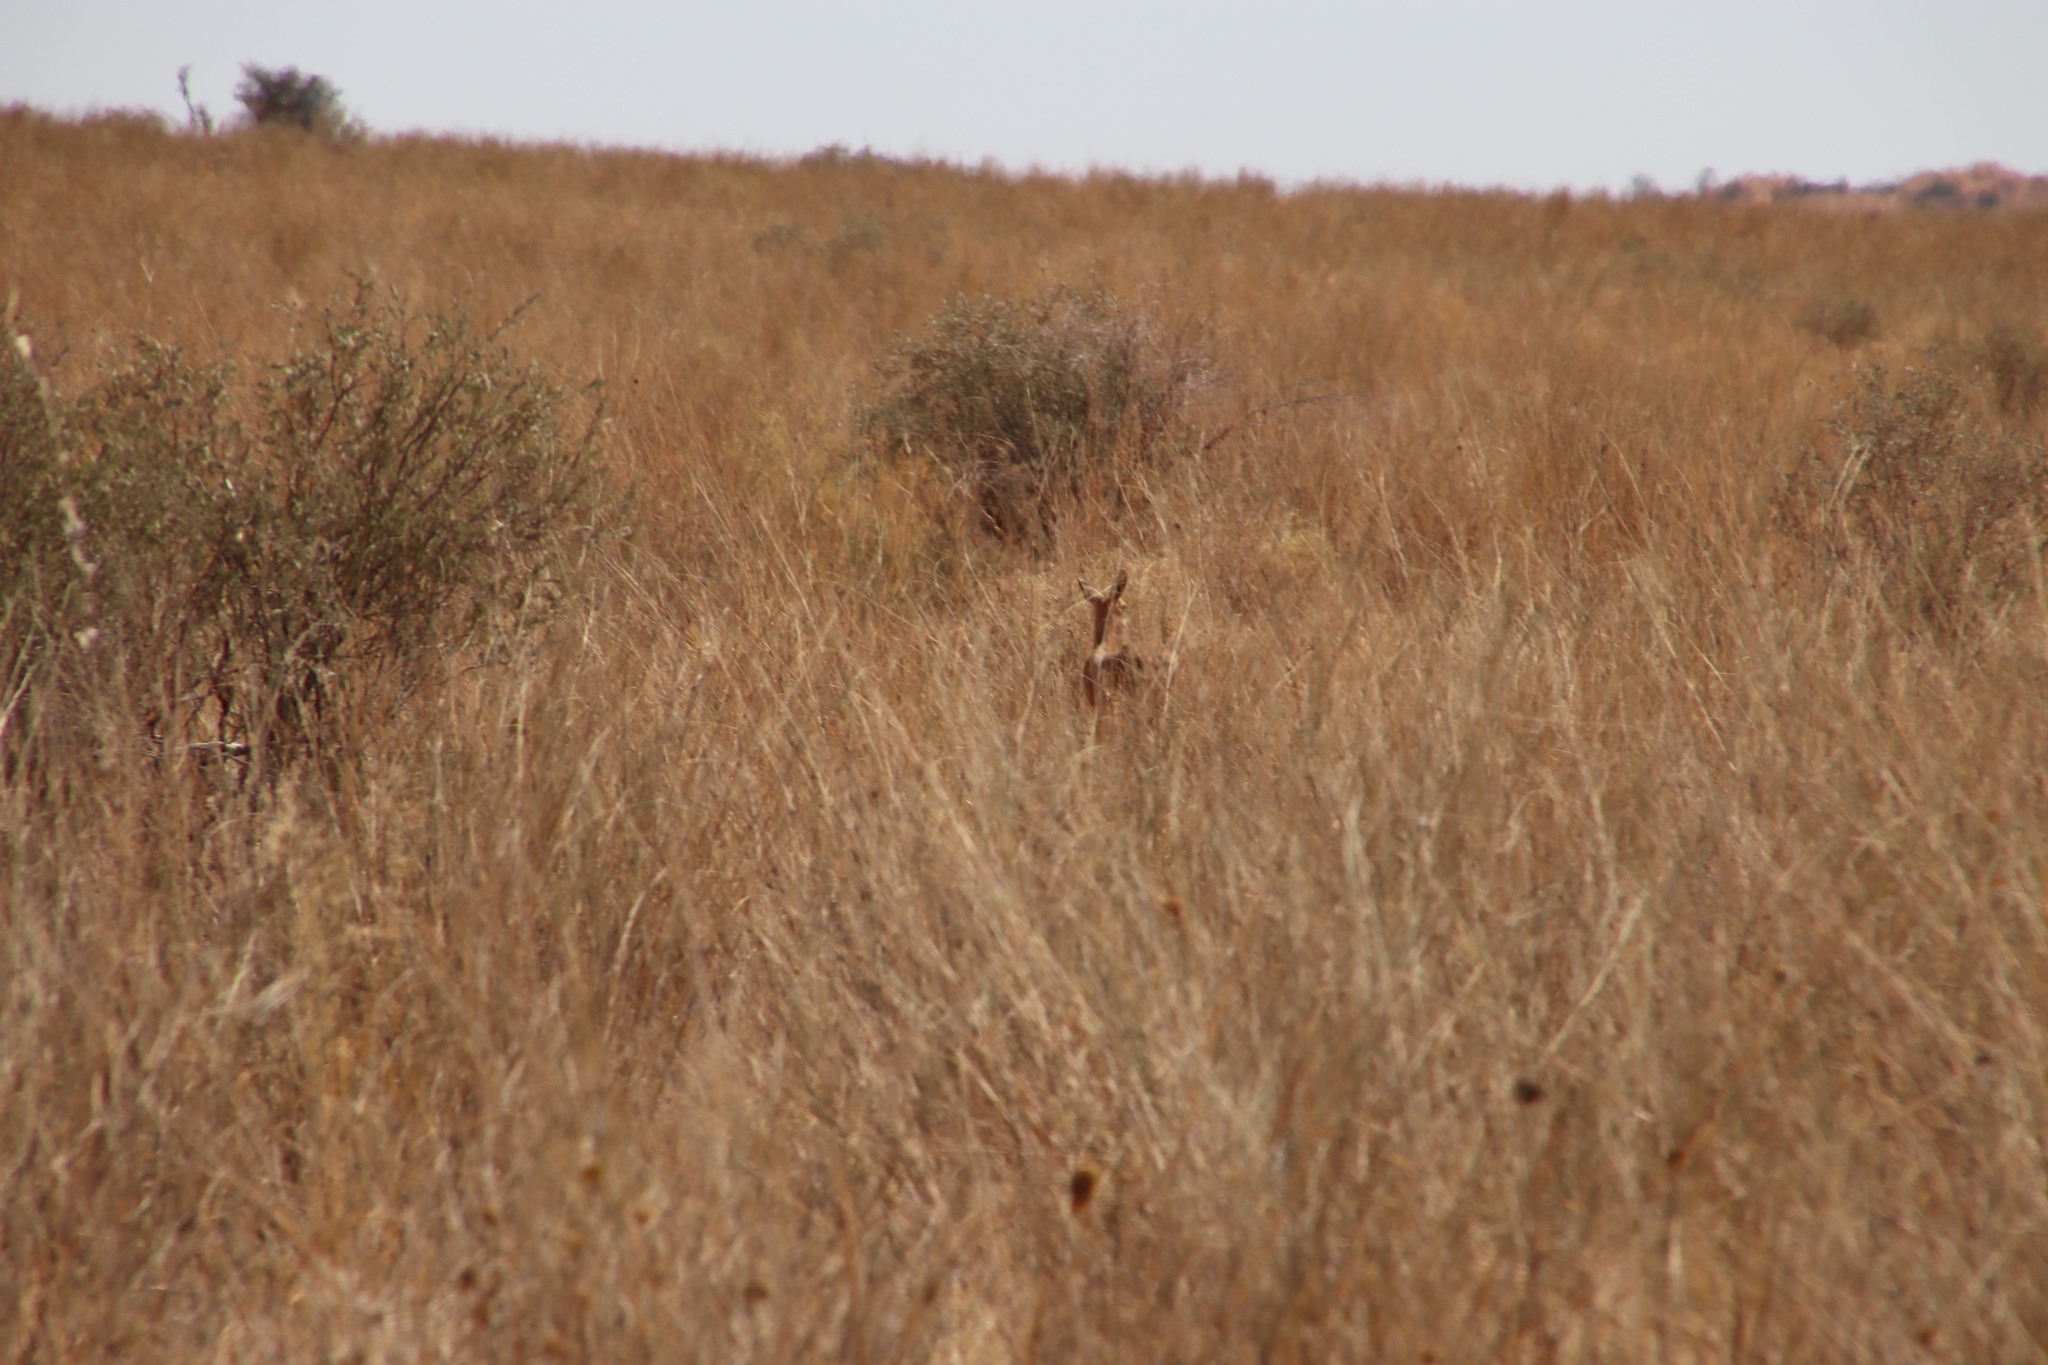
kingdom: Animalia
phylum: Chordata
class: Mammalia
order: Artiodactyla
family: Bovidae
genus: Raphicerus
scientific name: Raphicerus campestris
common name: Steenbok
